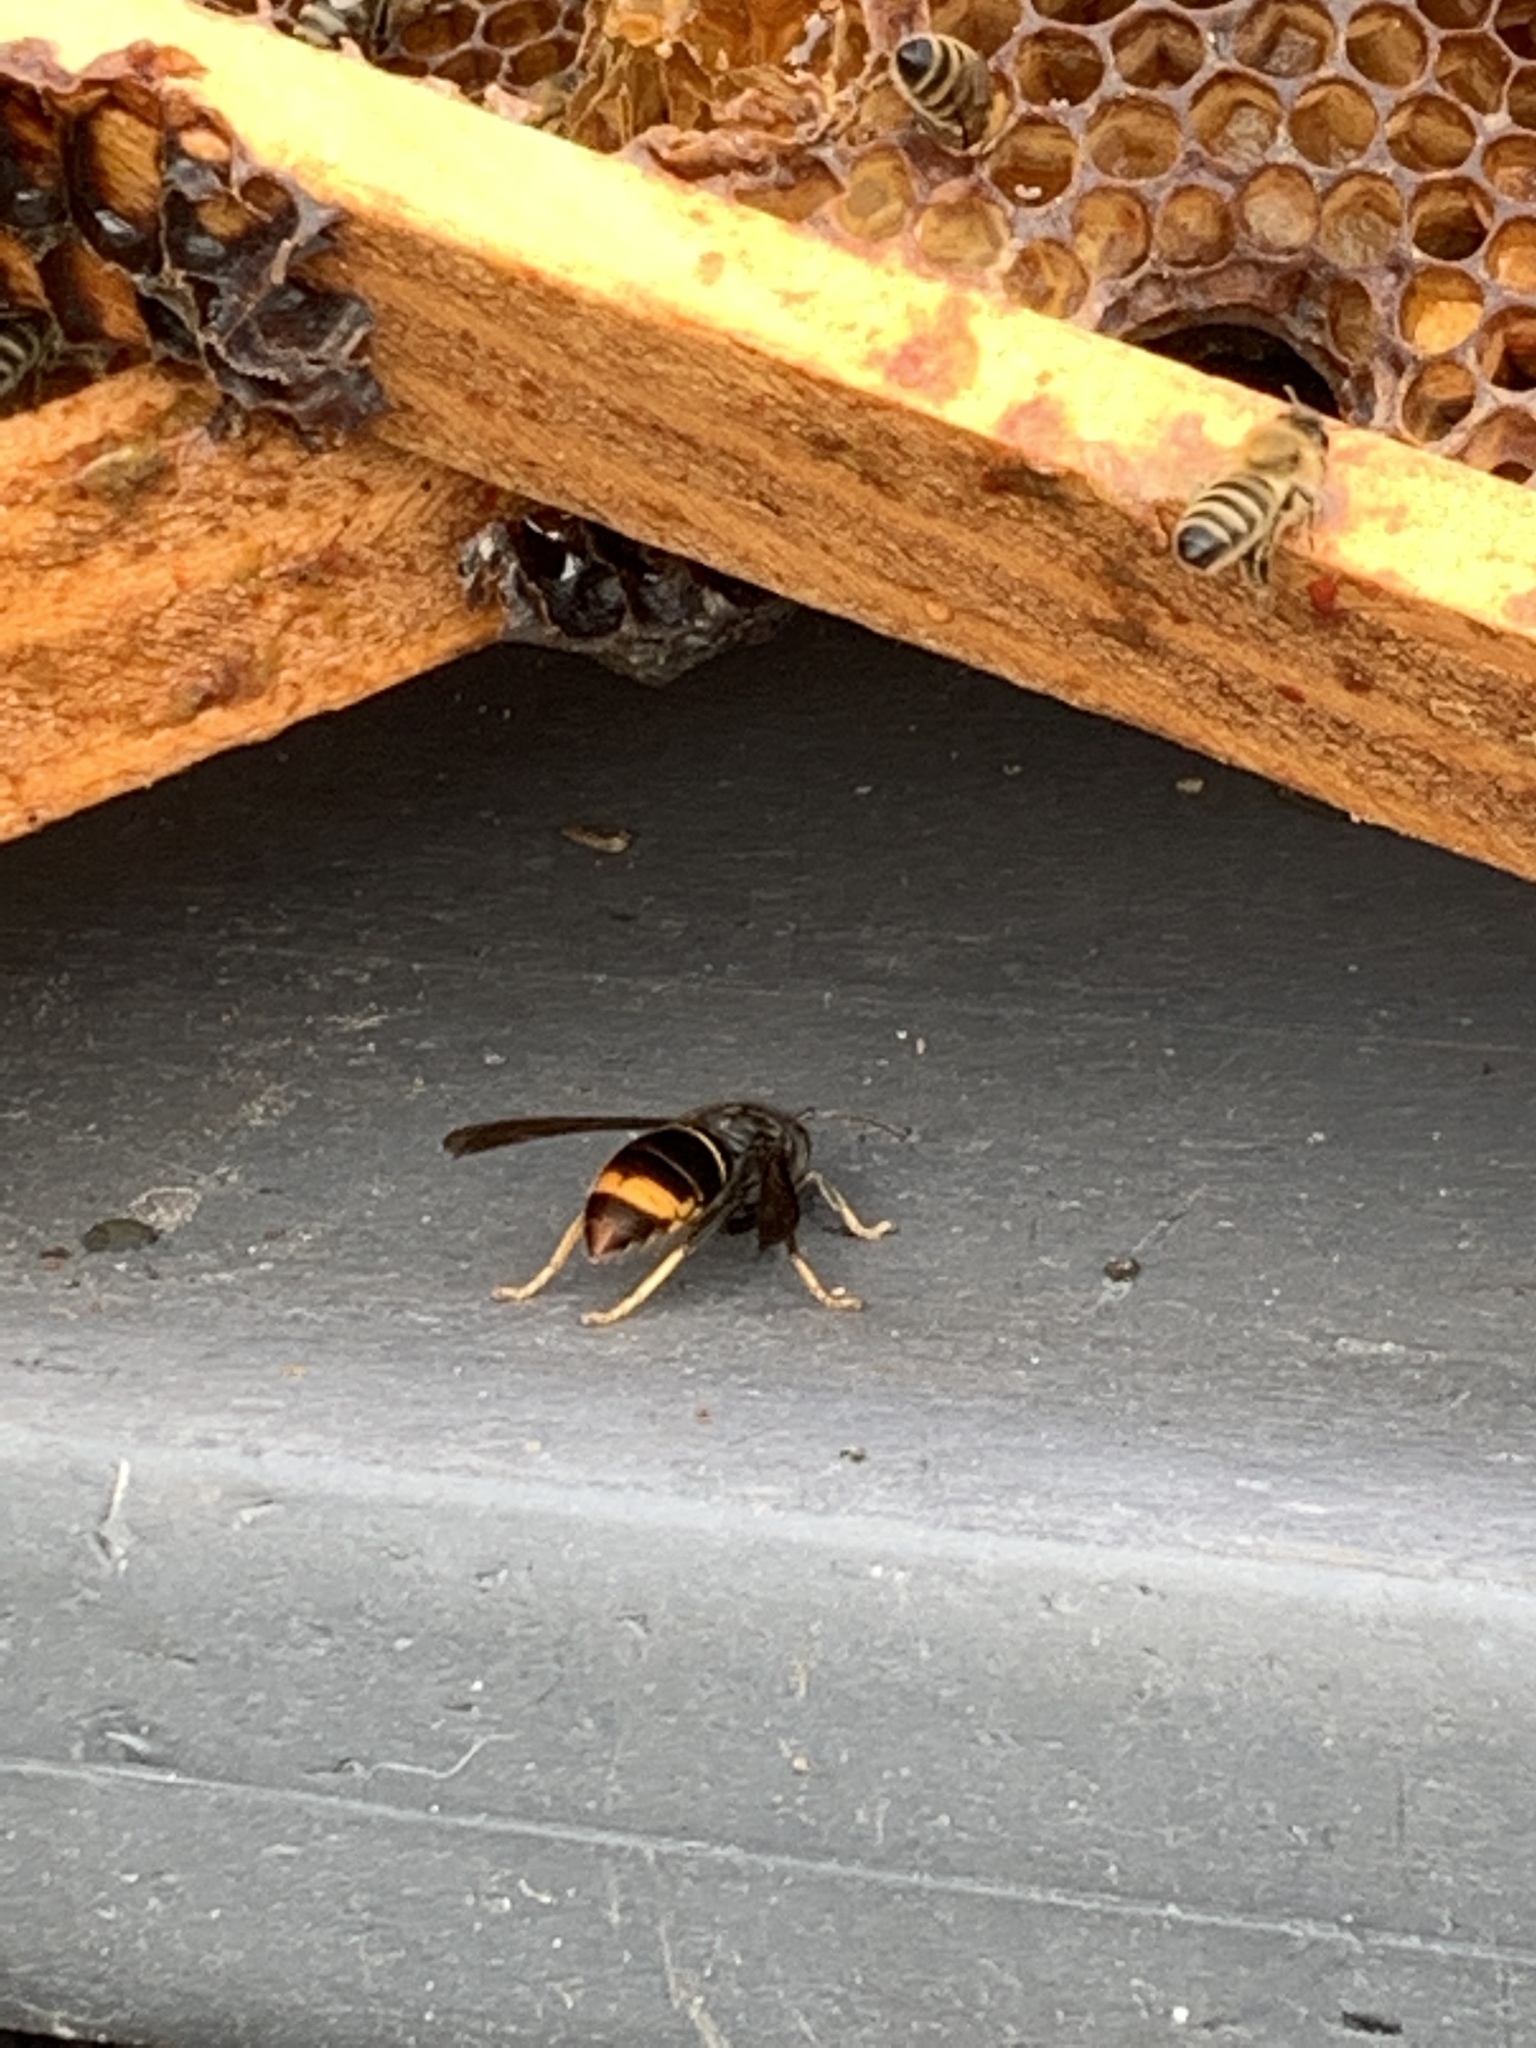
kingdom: Animalia
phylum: Arthropoda
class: Insecta
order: Hymenoptera
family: Vespidae
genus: Vespa
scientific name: Vespa velutina
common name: Asian hornet
